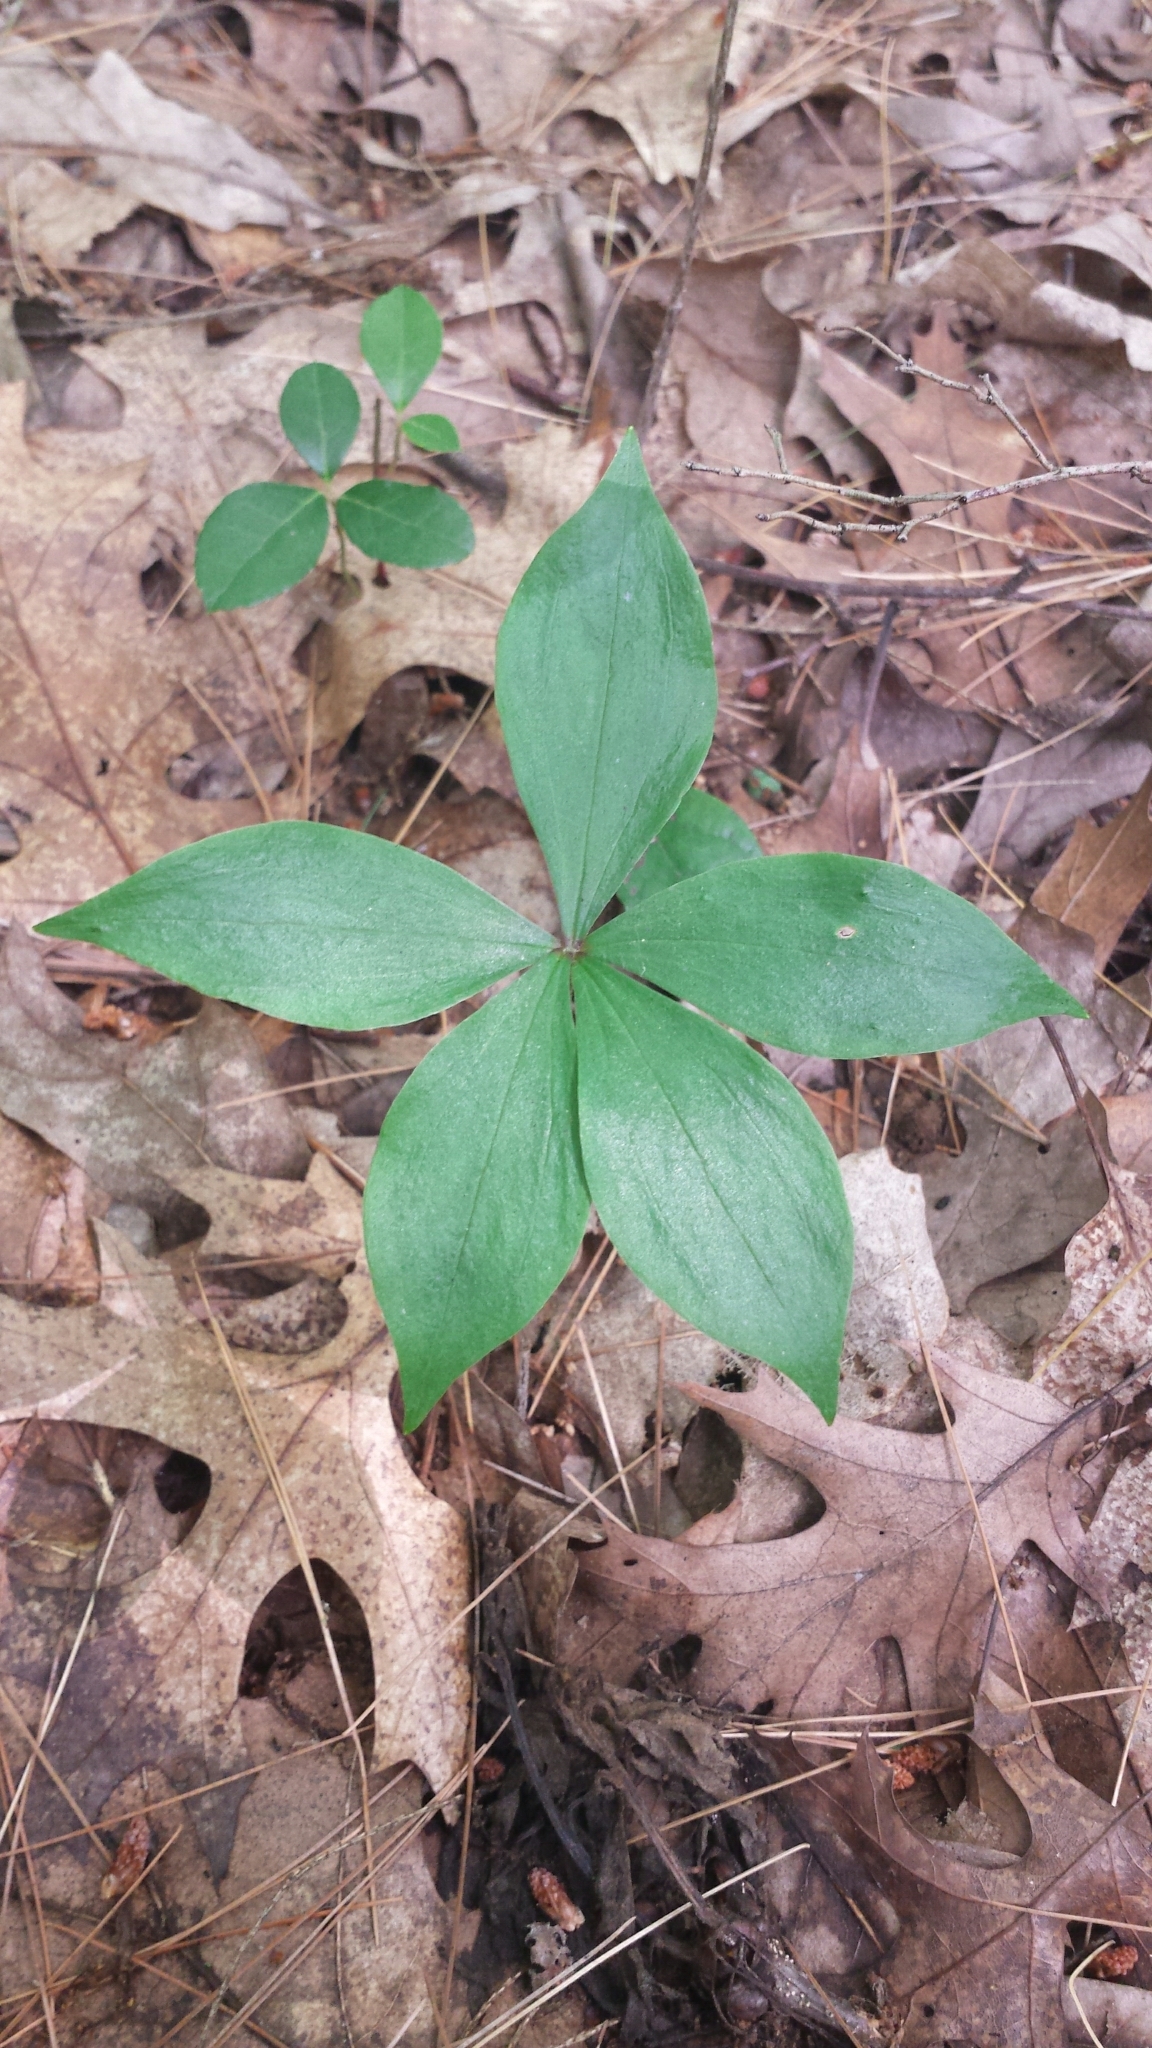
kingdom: Plantae
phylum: Tracheophyta
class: Liliopsida
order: Liliales
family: Liliaceae
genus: Medeola
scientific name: Medeola virginiana
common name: Indian cucumber-root
